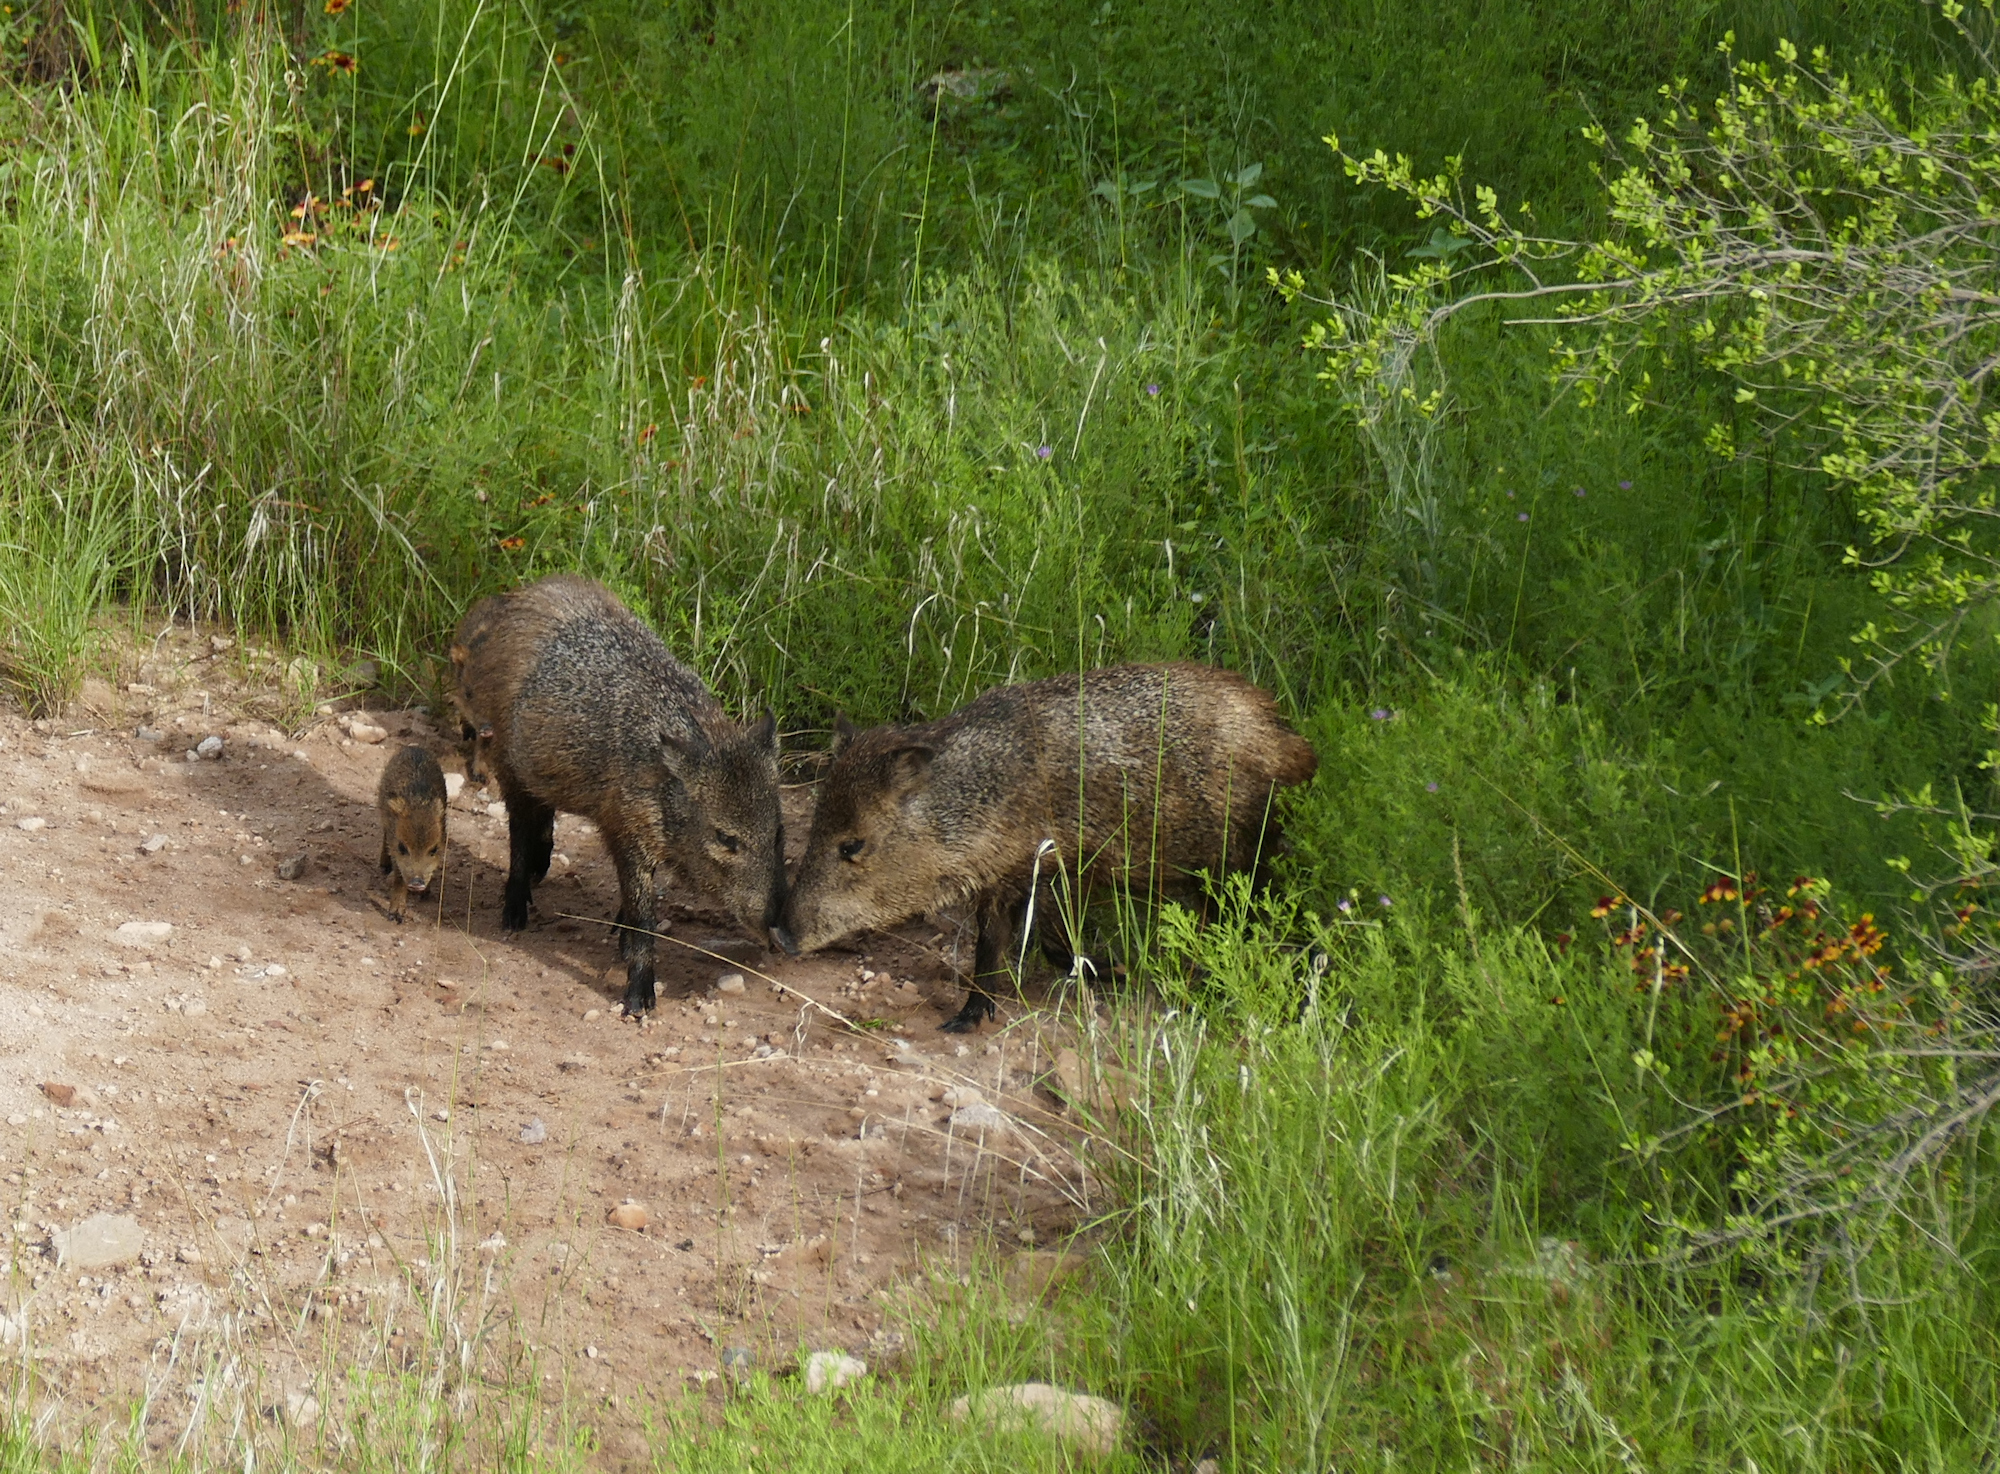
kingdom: Animalia
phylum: Chordata
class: Mammalia
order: Artiodactyla
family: Tayassuidae
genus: Pecari
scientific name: Pecari tajacu
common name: Collared peccary
